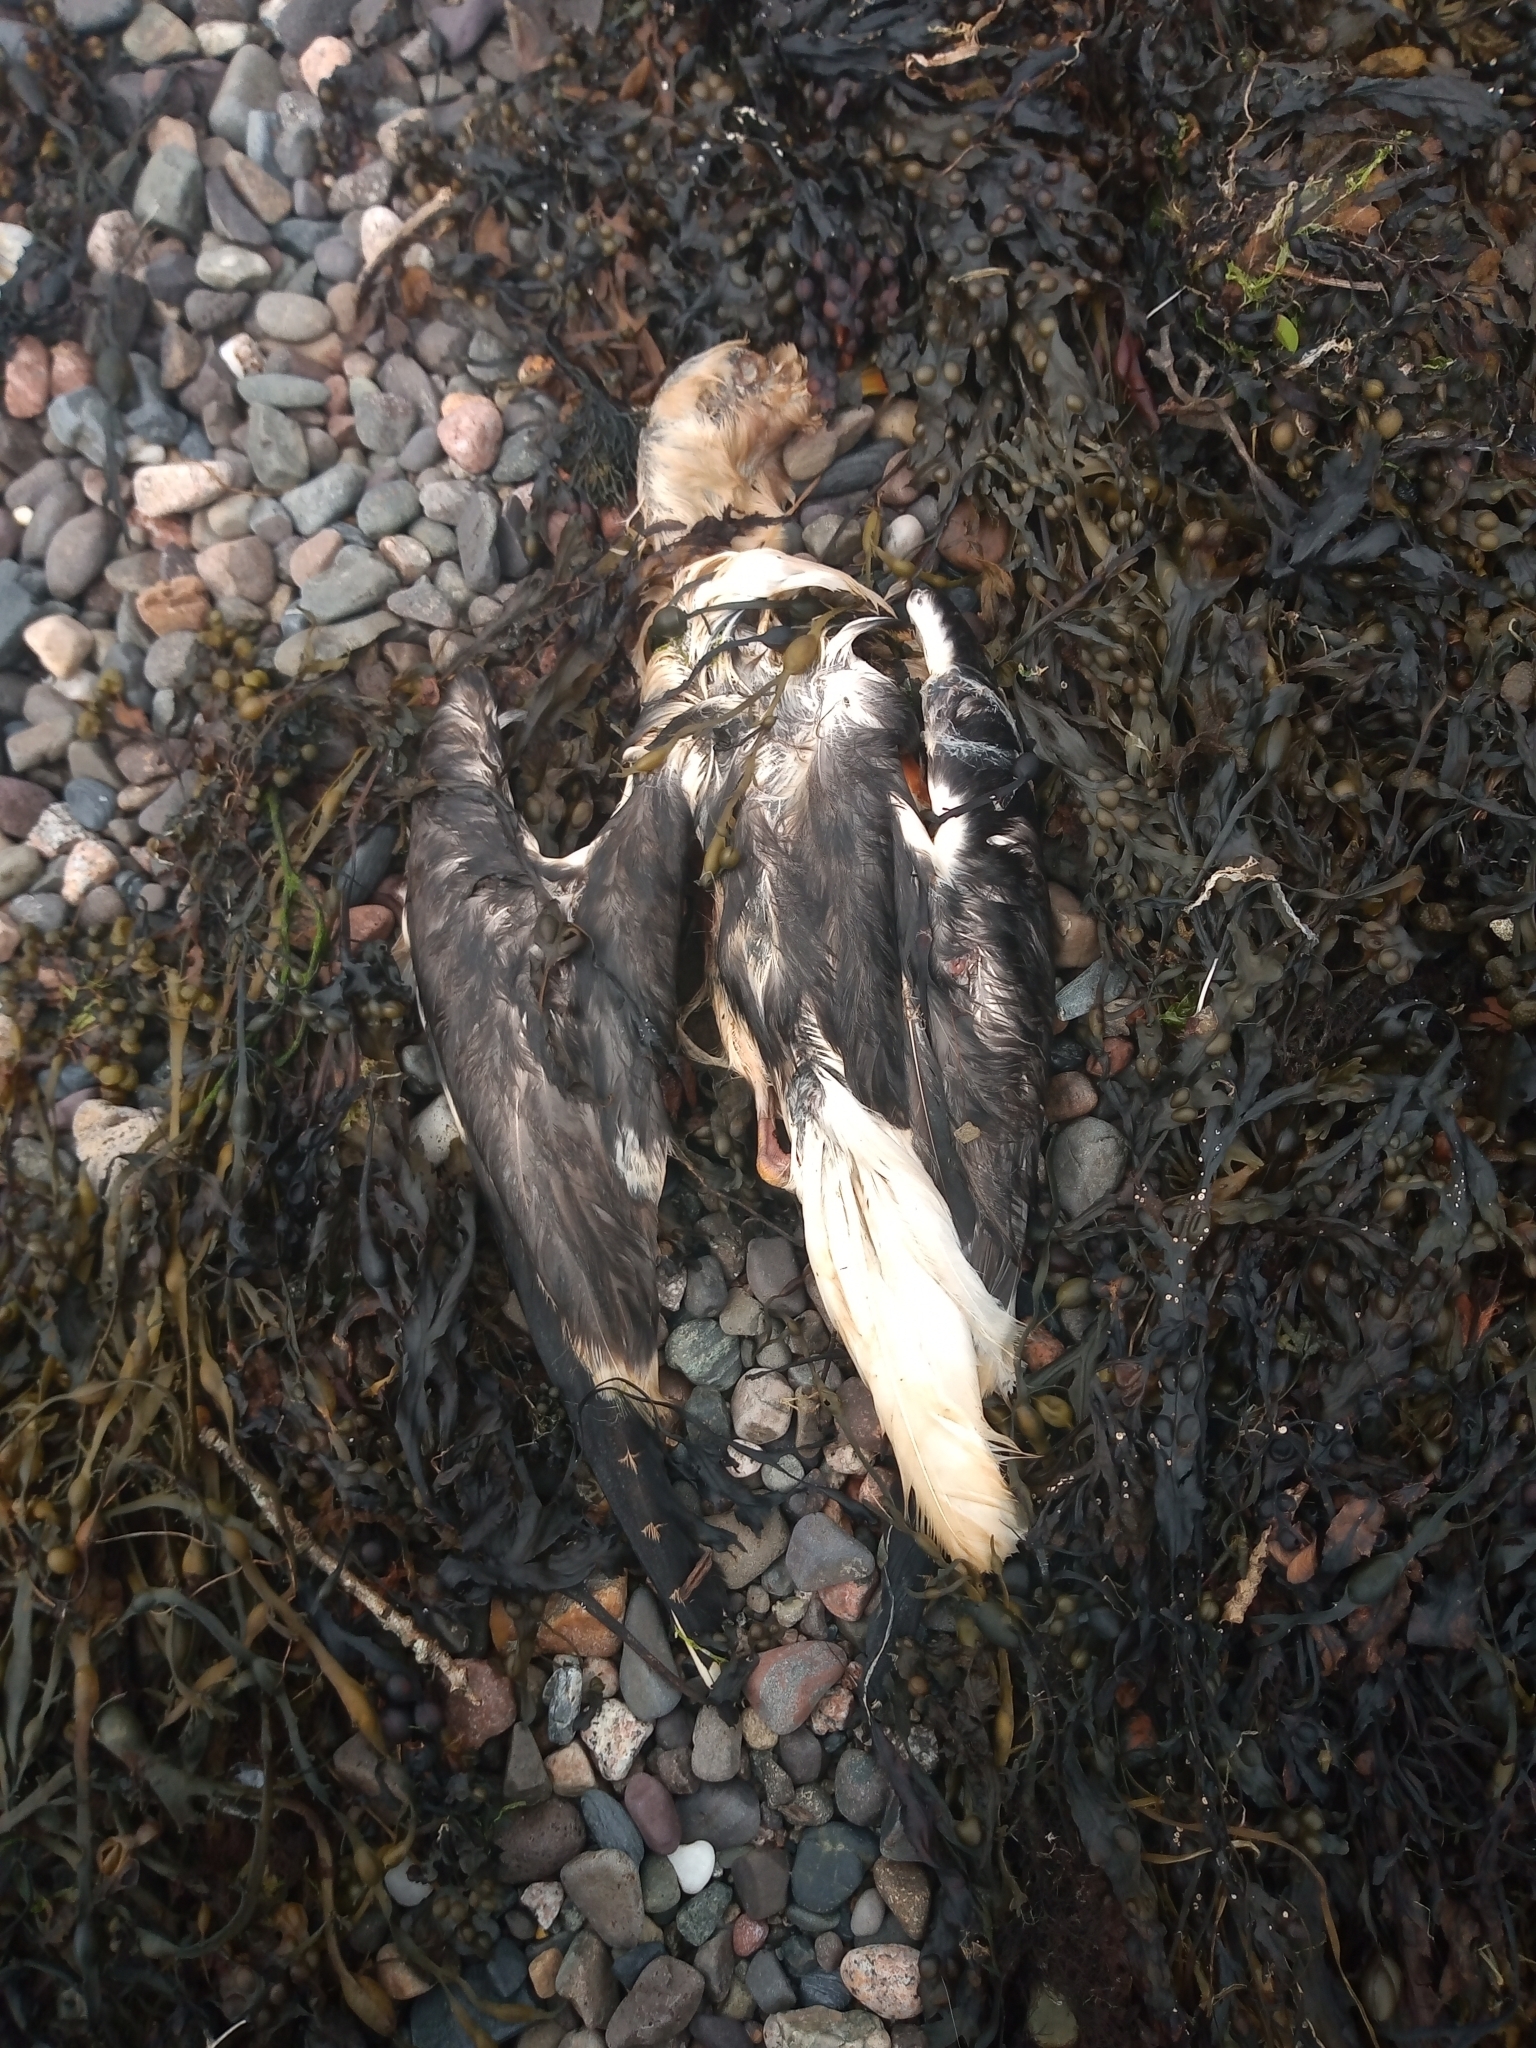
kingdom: Animalia
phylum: Chordata
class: Aves
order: Charadriiformes
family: Laridae
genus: Larus
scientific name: Larus
